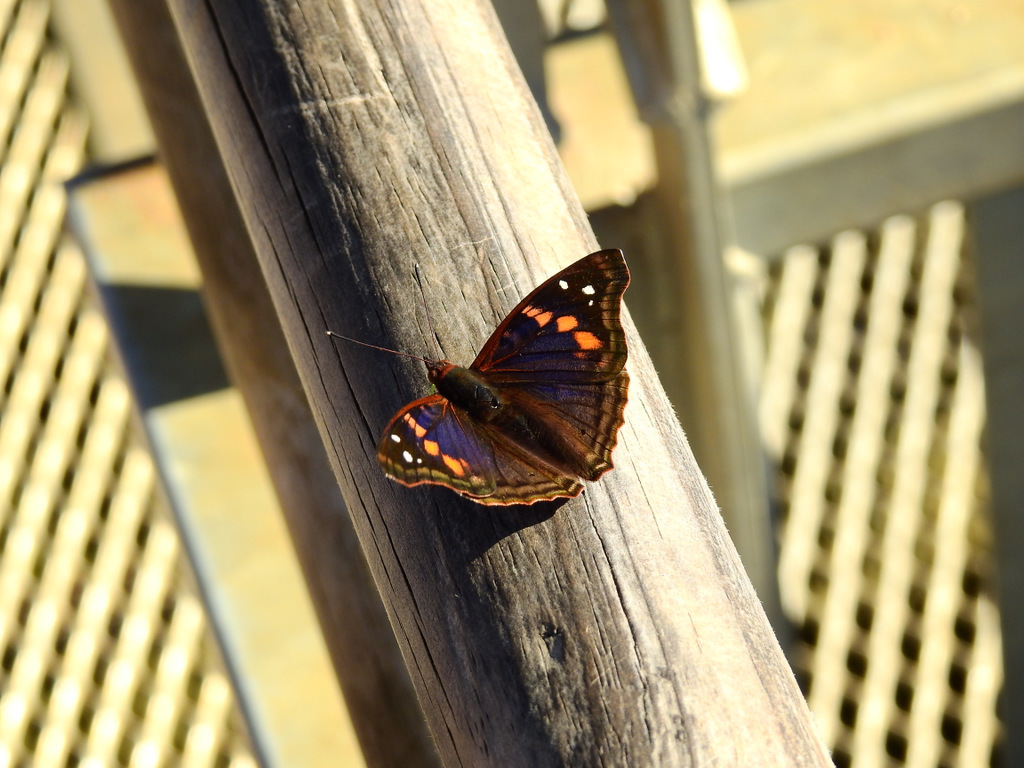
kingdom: Animalia
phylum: Arthropoda
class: Insecta
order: Lepidoptera
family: Nymphalidae
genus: Doxocopa
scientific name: Doxocopa agathina
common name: Agathina emperor
